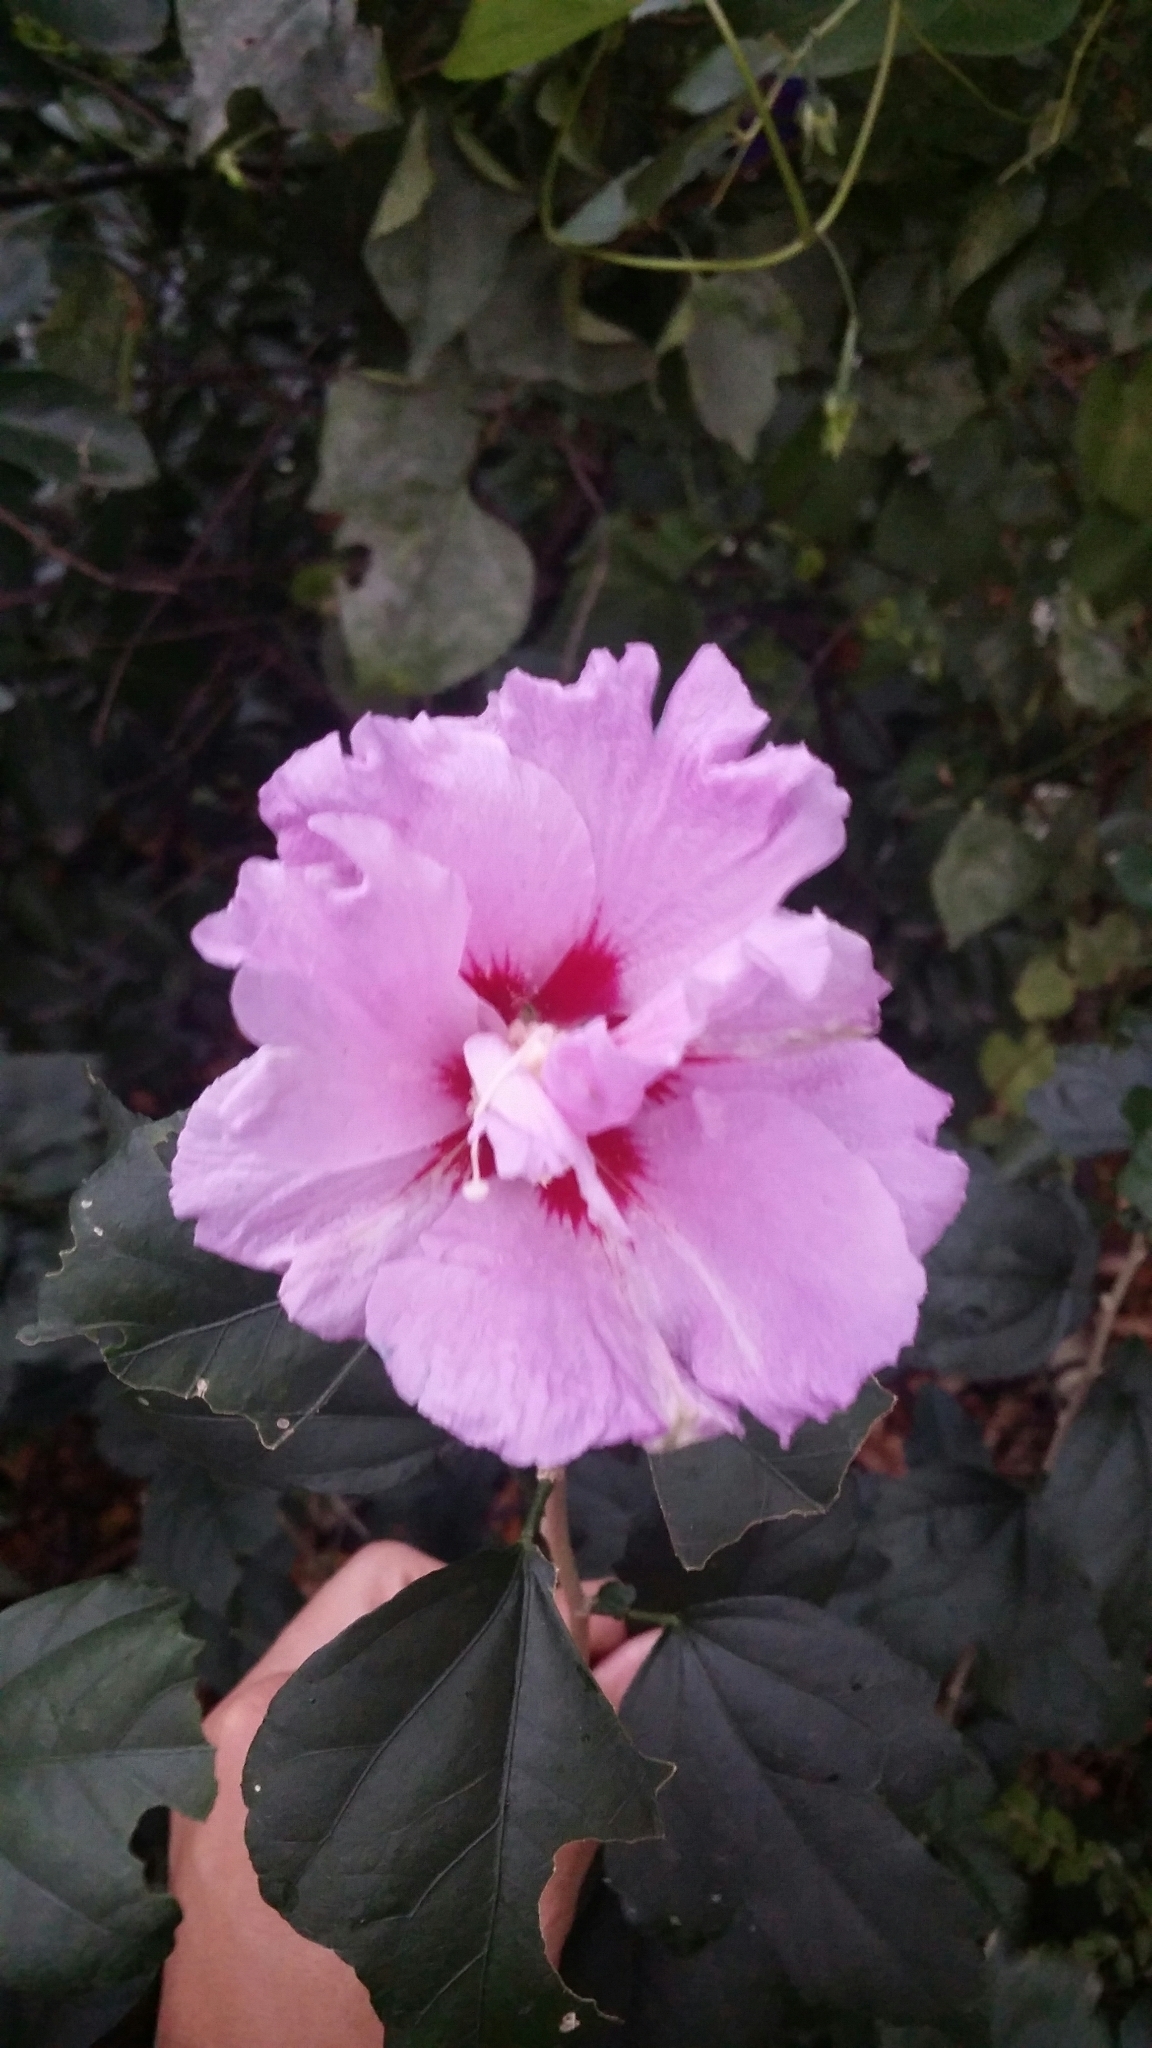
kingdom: Plantae
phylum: Tracheophyta
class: Magnoliopsida
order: Malvales
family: Malvaceae
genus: Hibiscus
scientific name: Hibiscus syriacus
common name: Syrian ketmia
